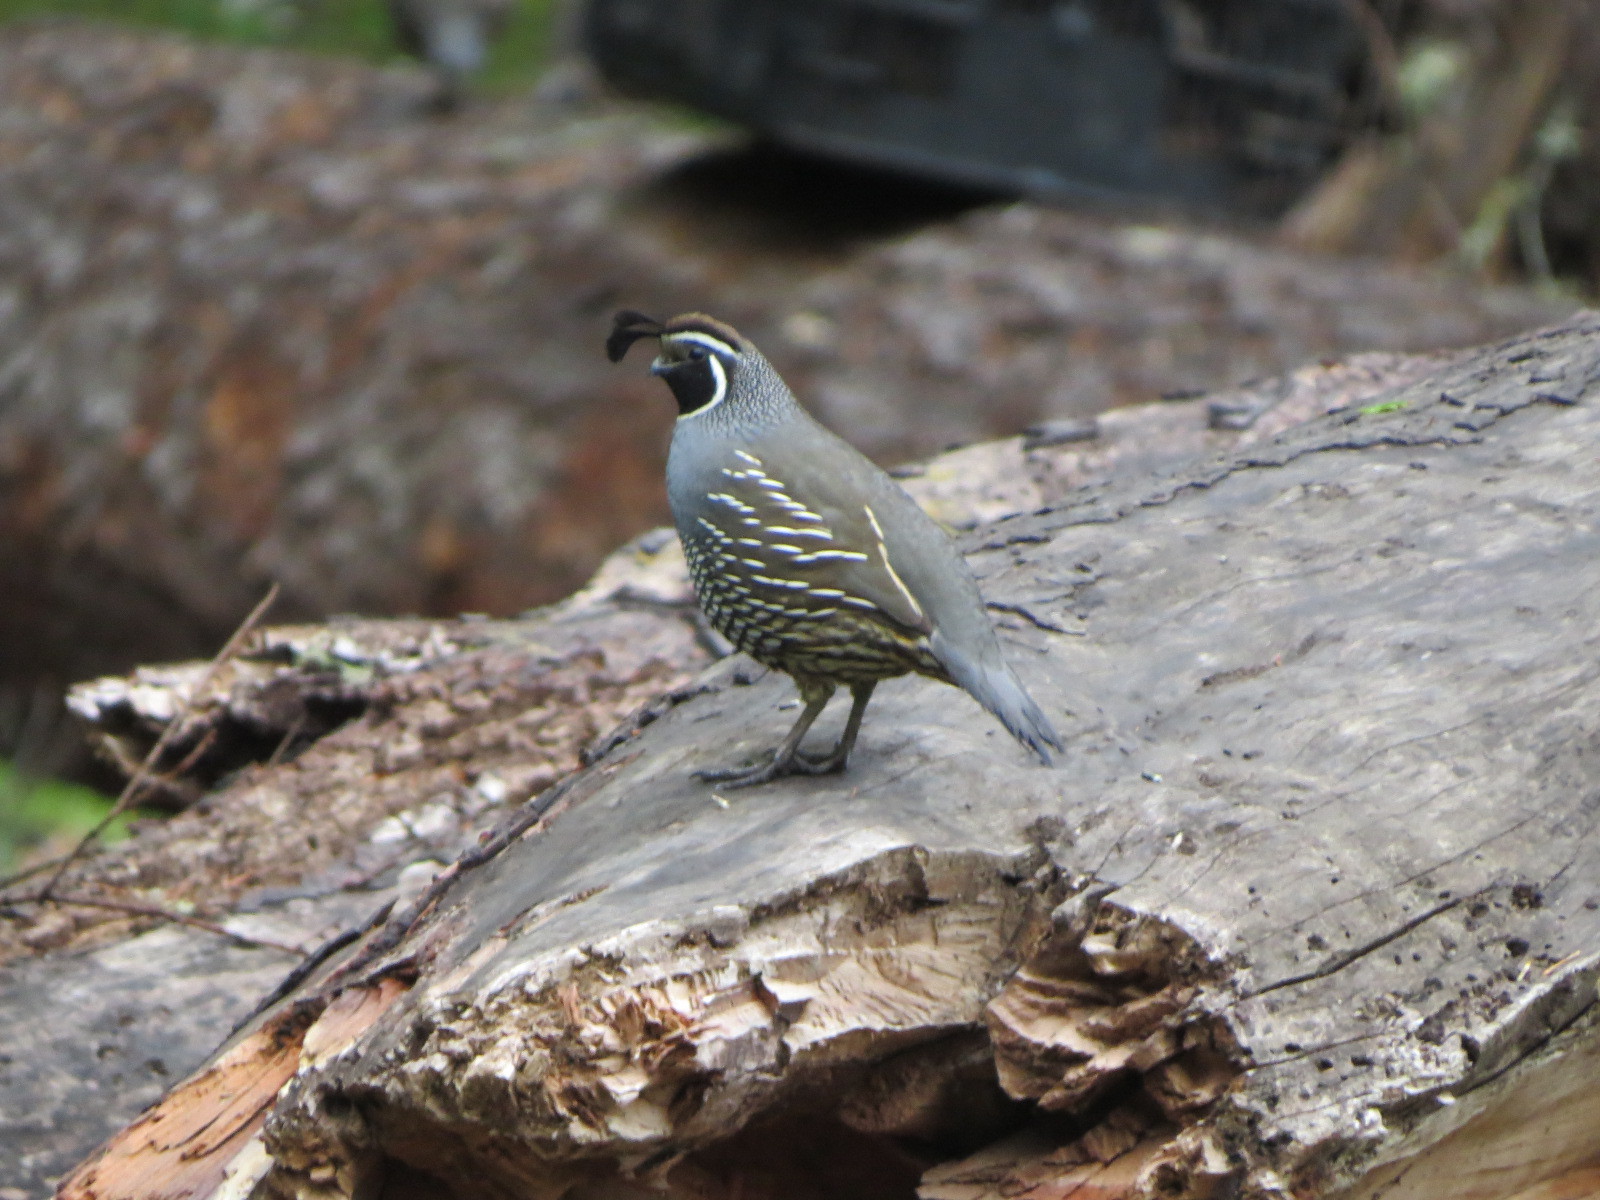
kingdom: Animalia
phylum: Chordata
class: Aves
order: Galliformes
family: Odontophoridae
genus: Callipepla
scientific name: Callipepla californica
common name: California quail
